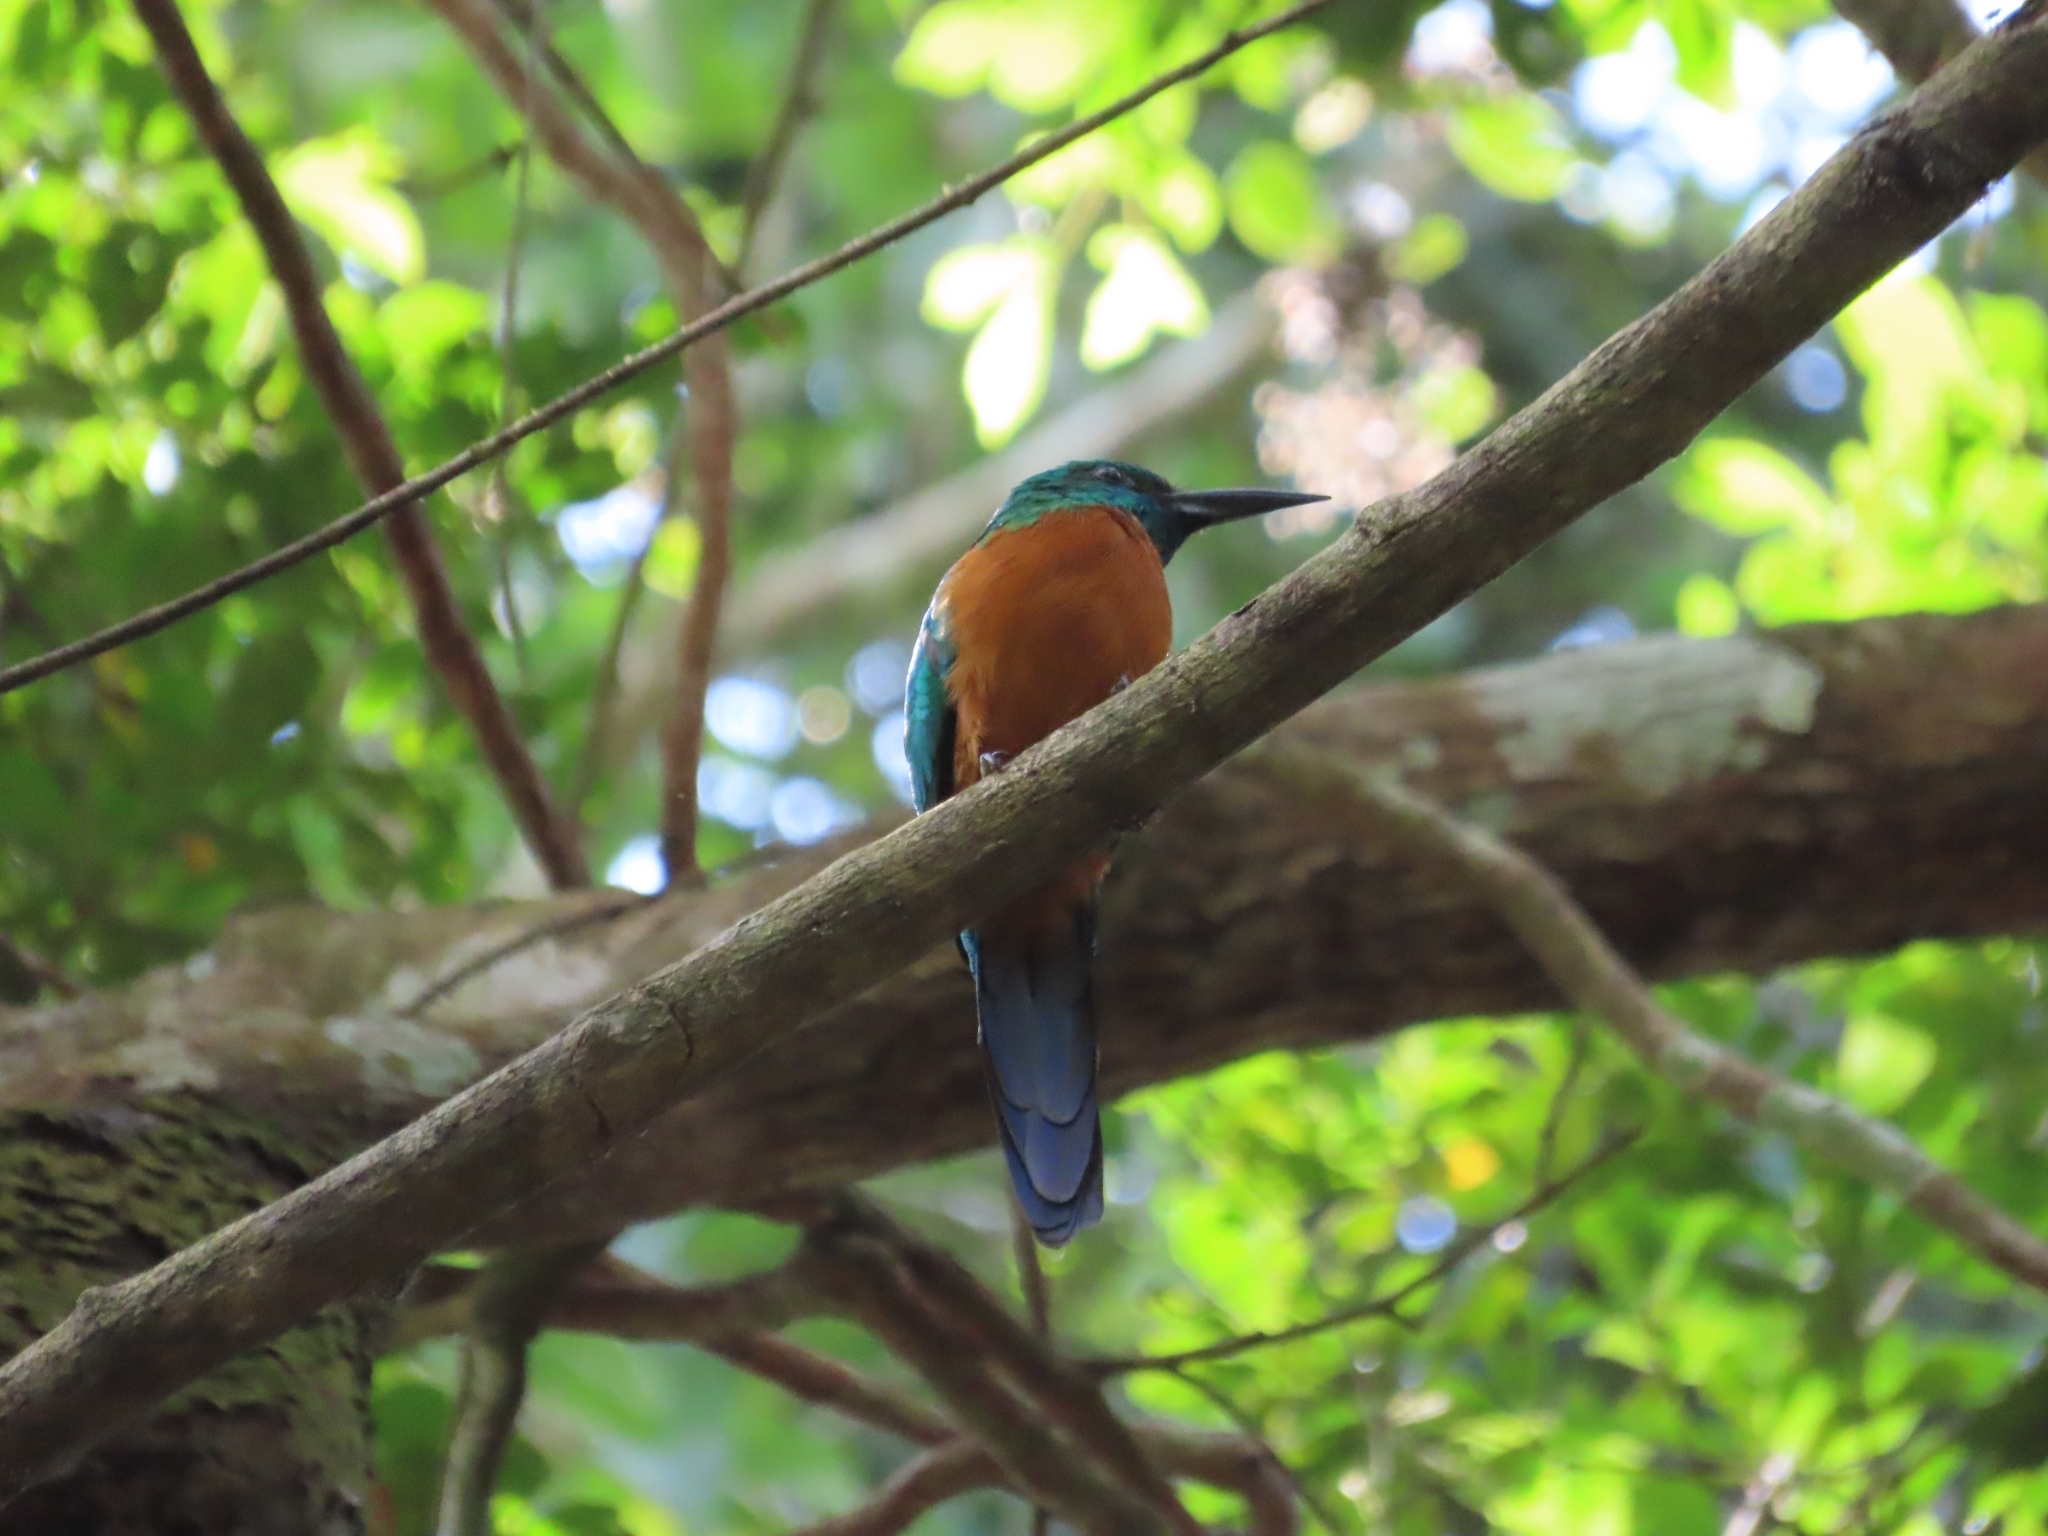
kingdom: Animalia
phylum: Chordata
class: Aves
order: Piciformes
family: Galbulidae
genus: Jacamerops
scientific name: Jacamerops aureus
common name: Great jacamar
